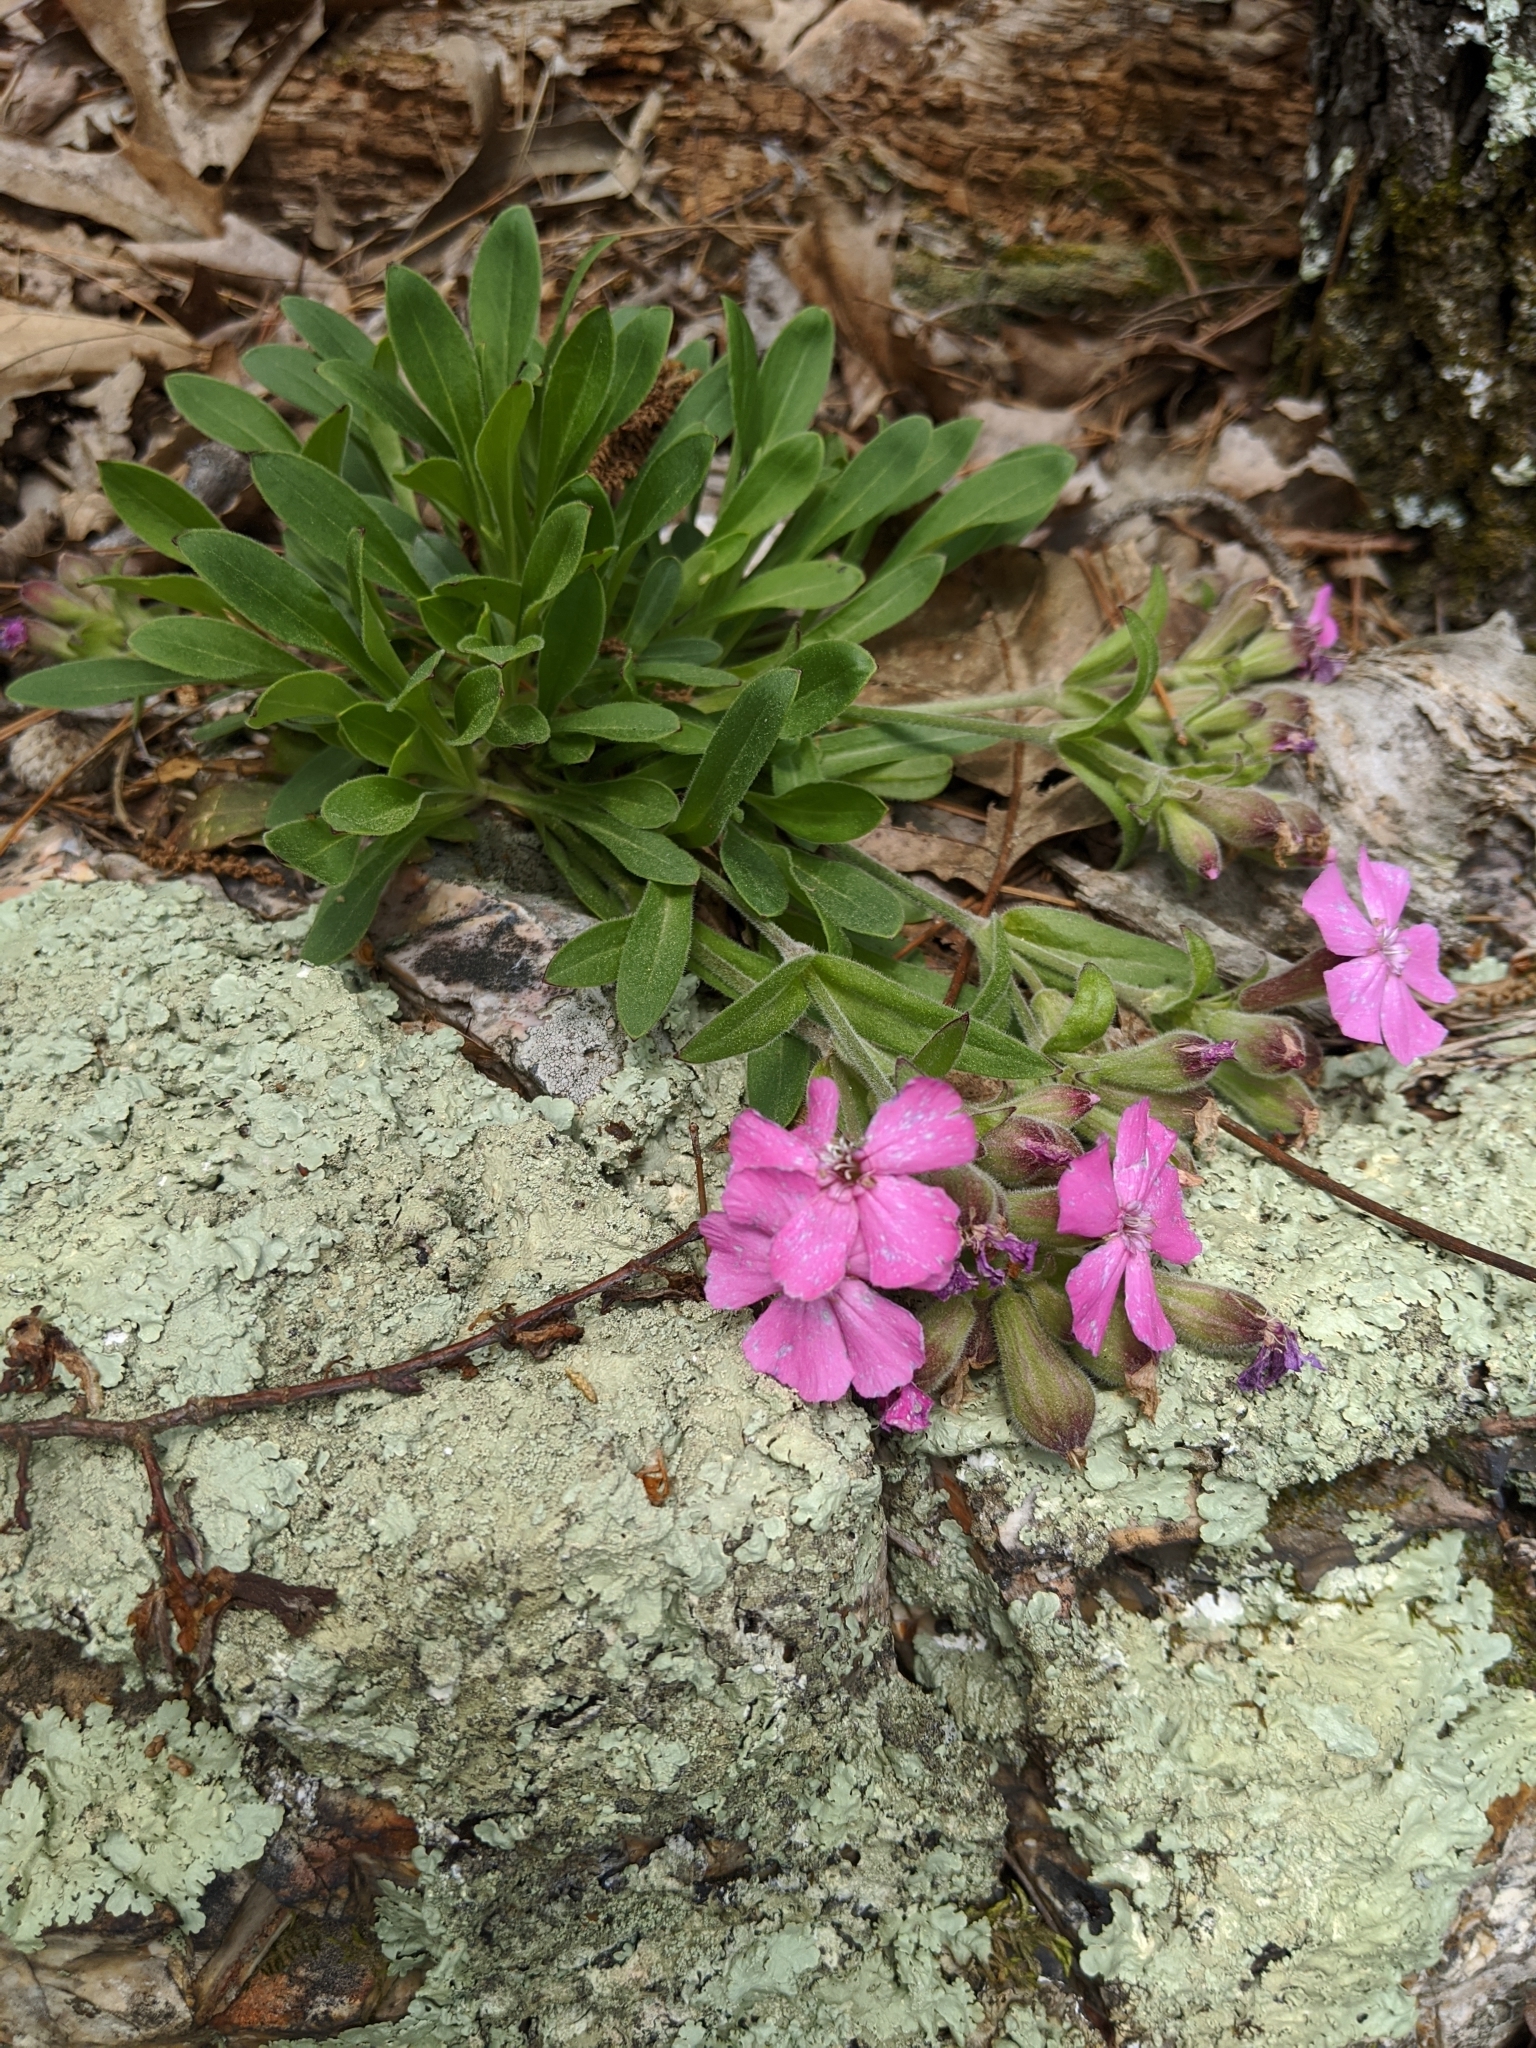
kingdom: Plantae
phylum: Tracheophyta
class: Magnoliopsida
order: Caryophyllales
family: Caryophyllaceae
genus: Silene
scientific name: Silene caroliniana
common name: Sticky catchfly
